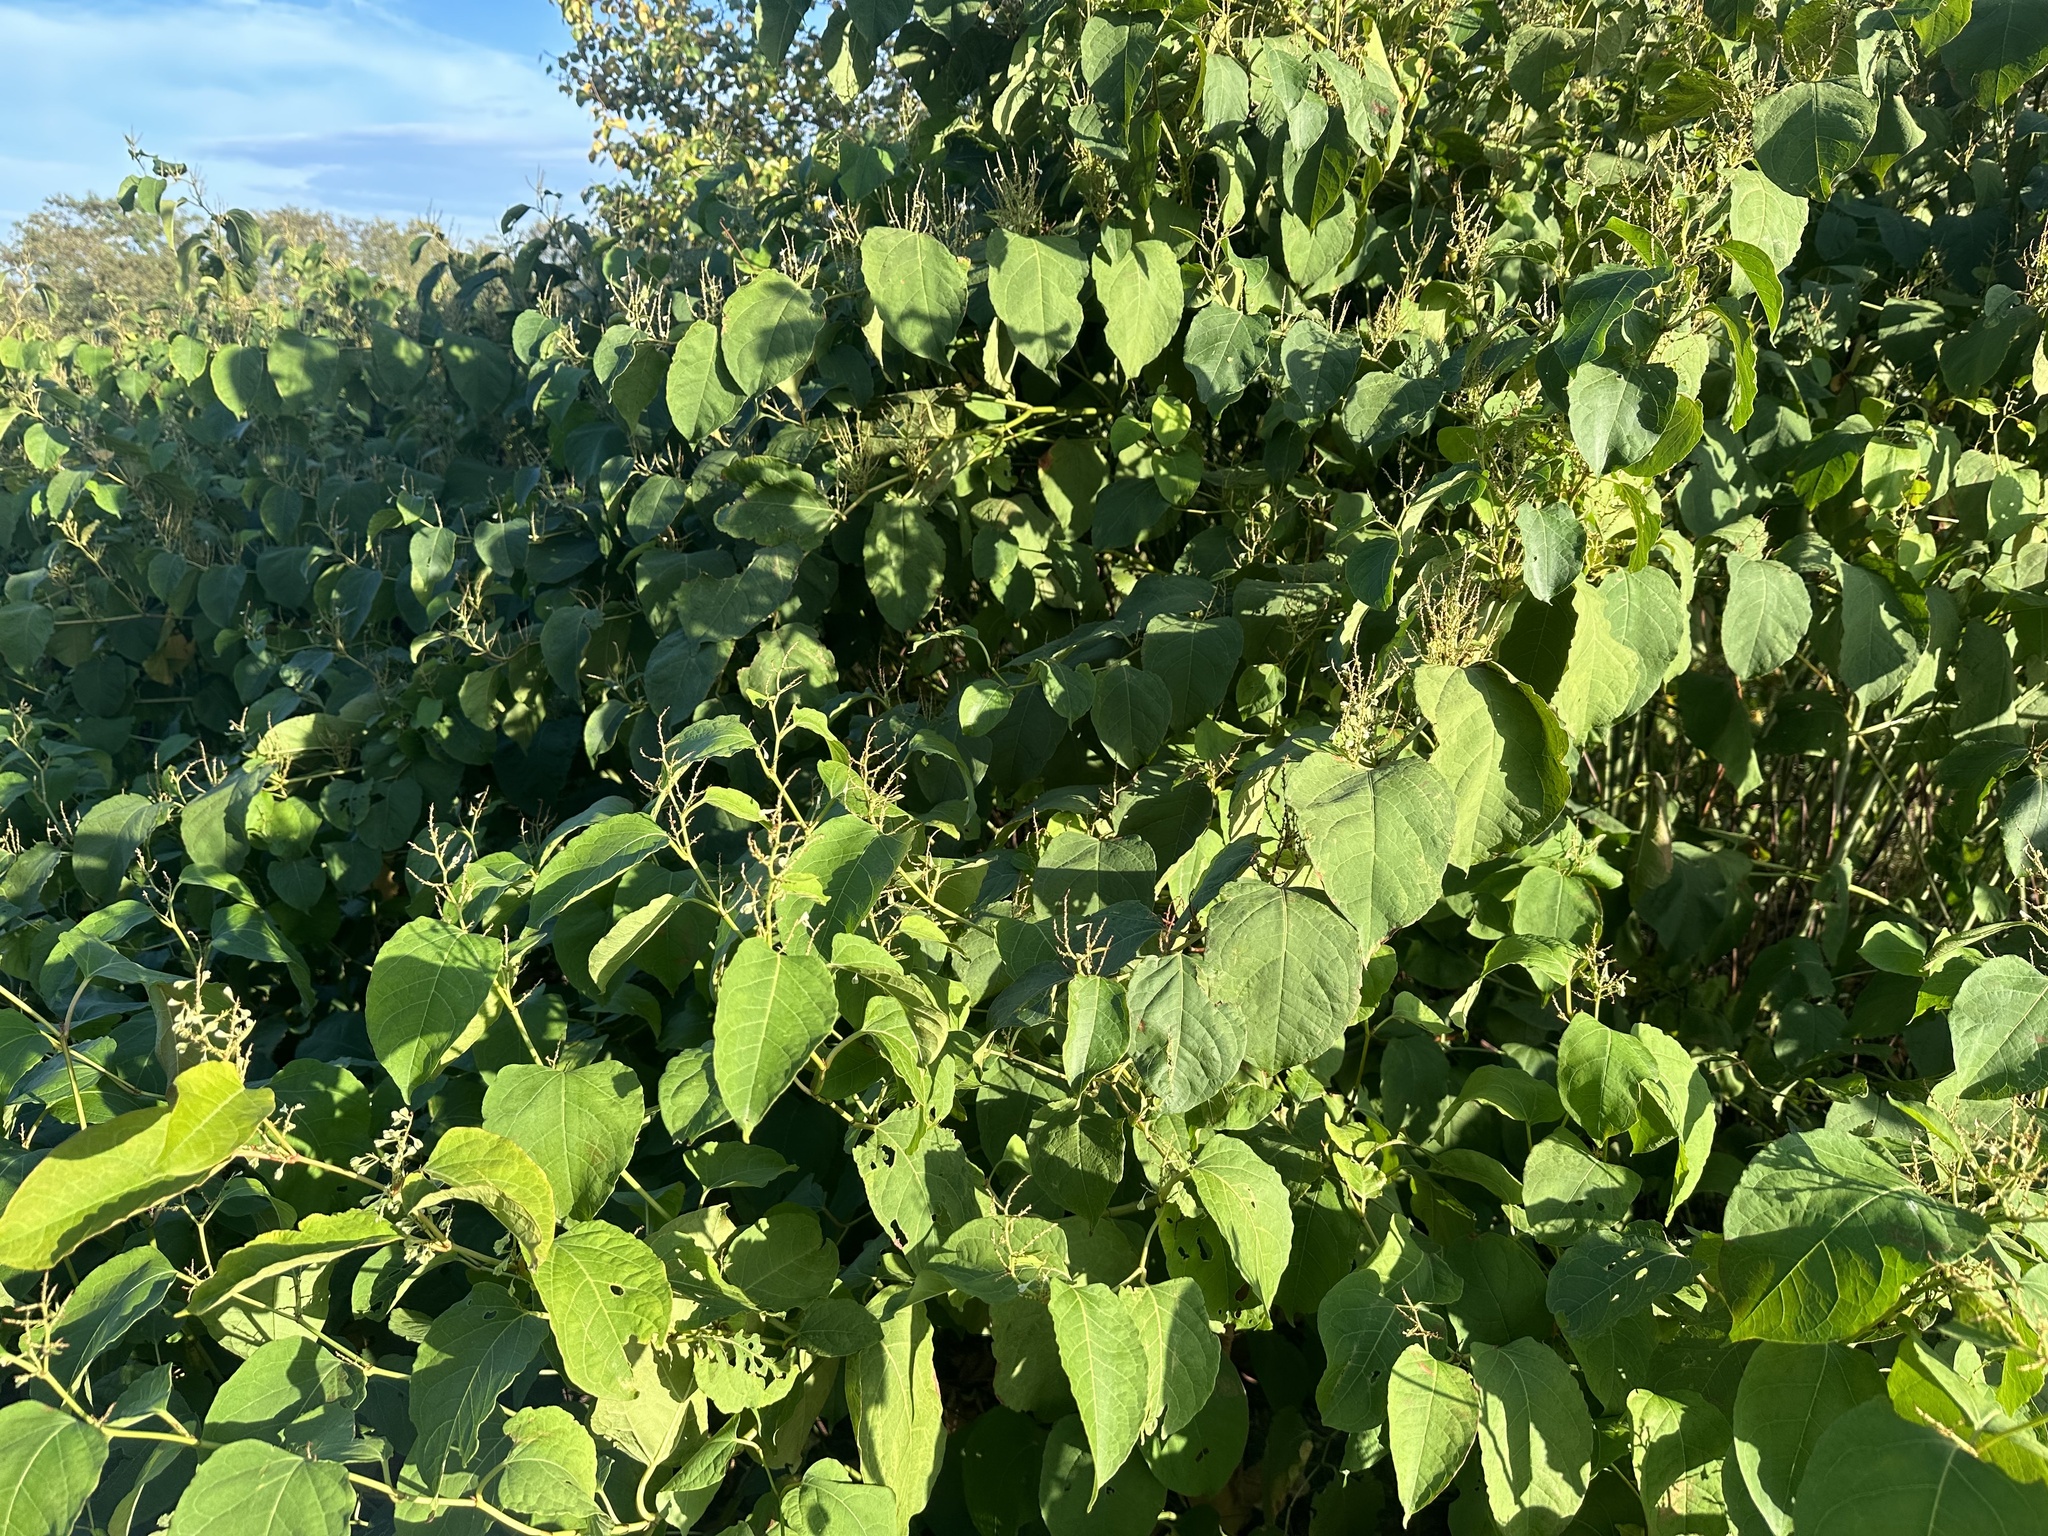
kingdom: Plantae
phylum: Tracheophyta
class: Magnoliopsida
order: Caryophyllales
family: Polygonaceae
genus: Reynoutria
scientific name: Reynoutria sachalinensis
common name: Giant knotweed
